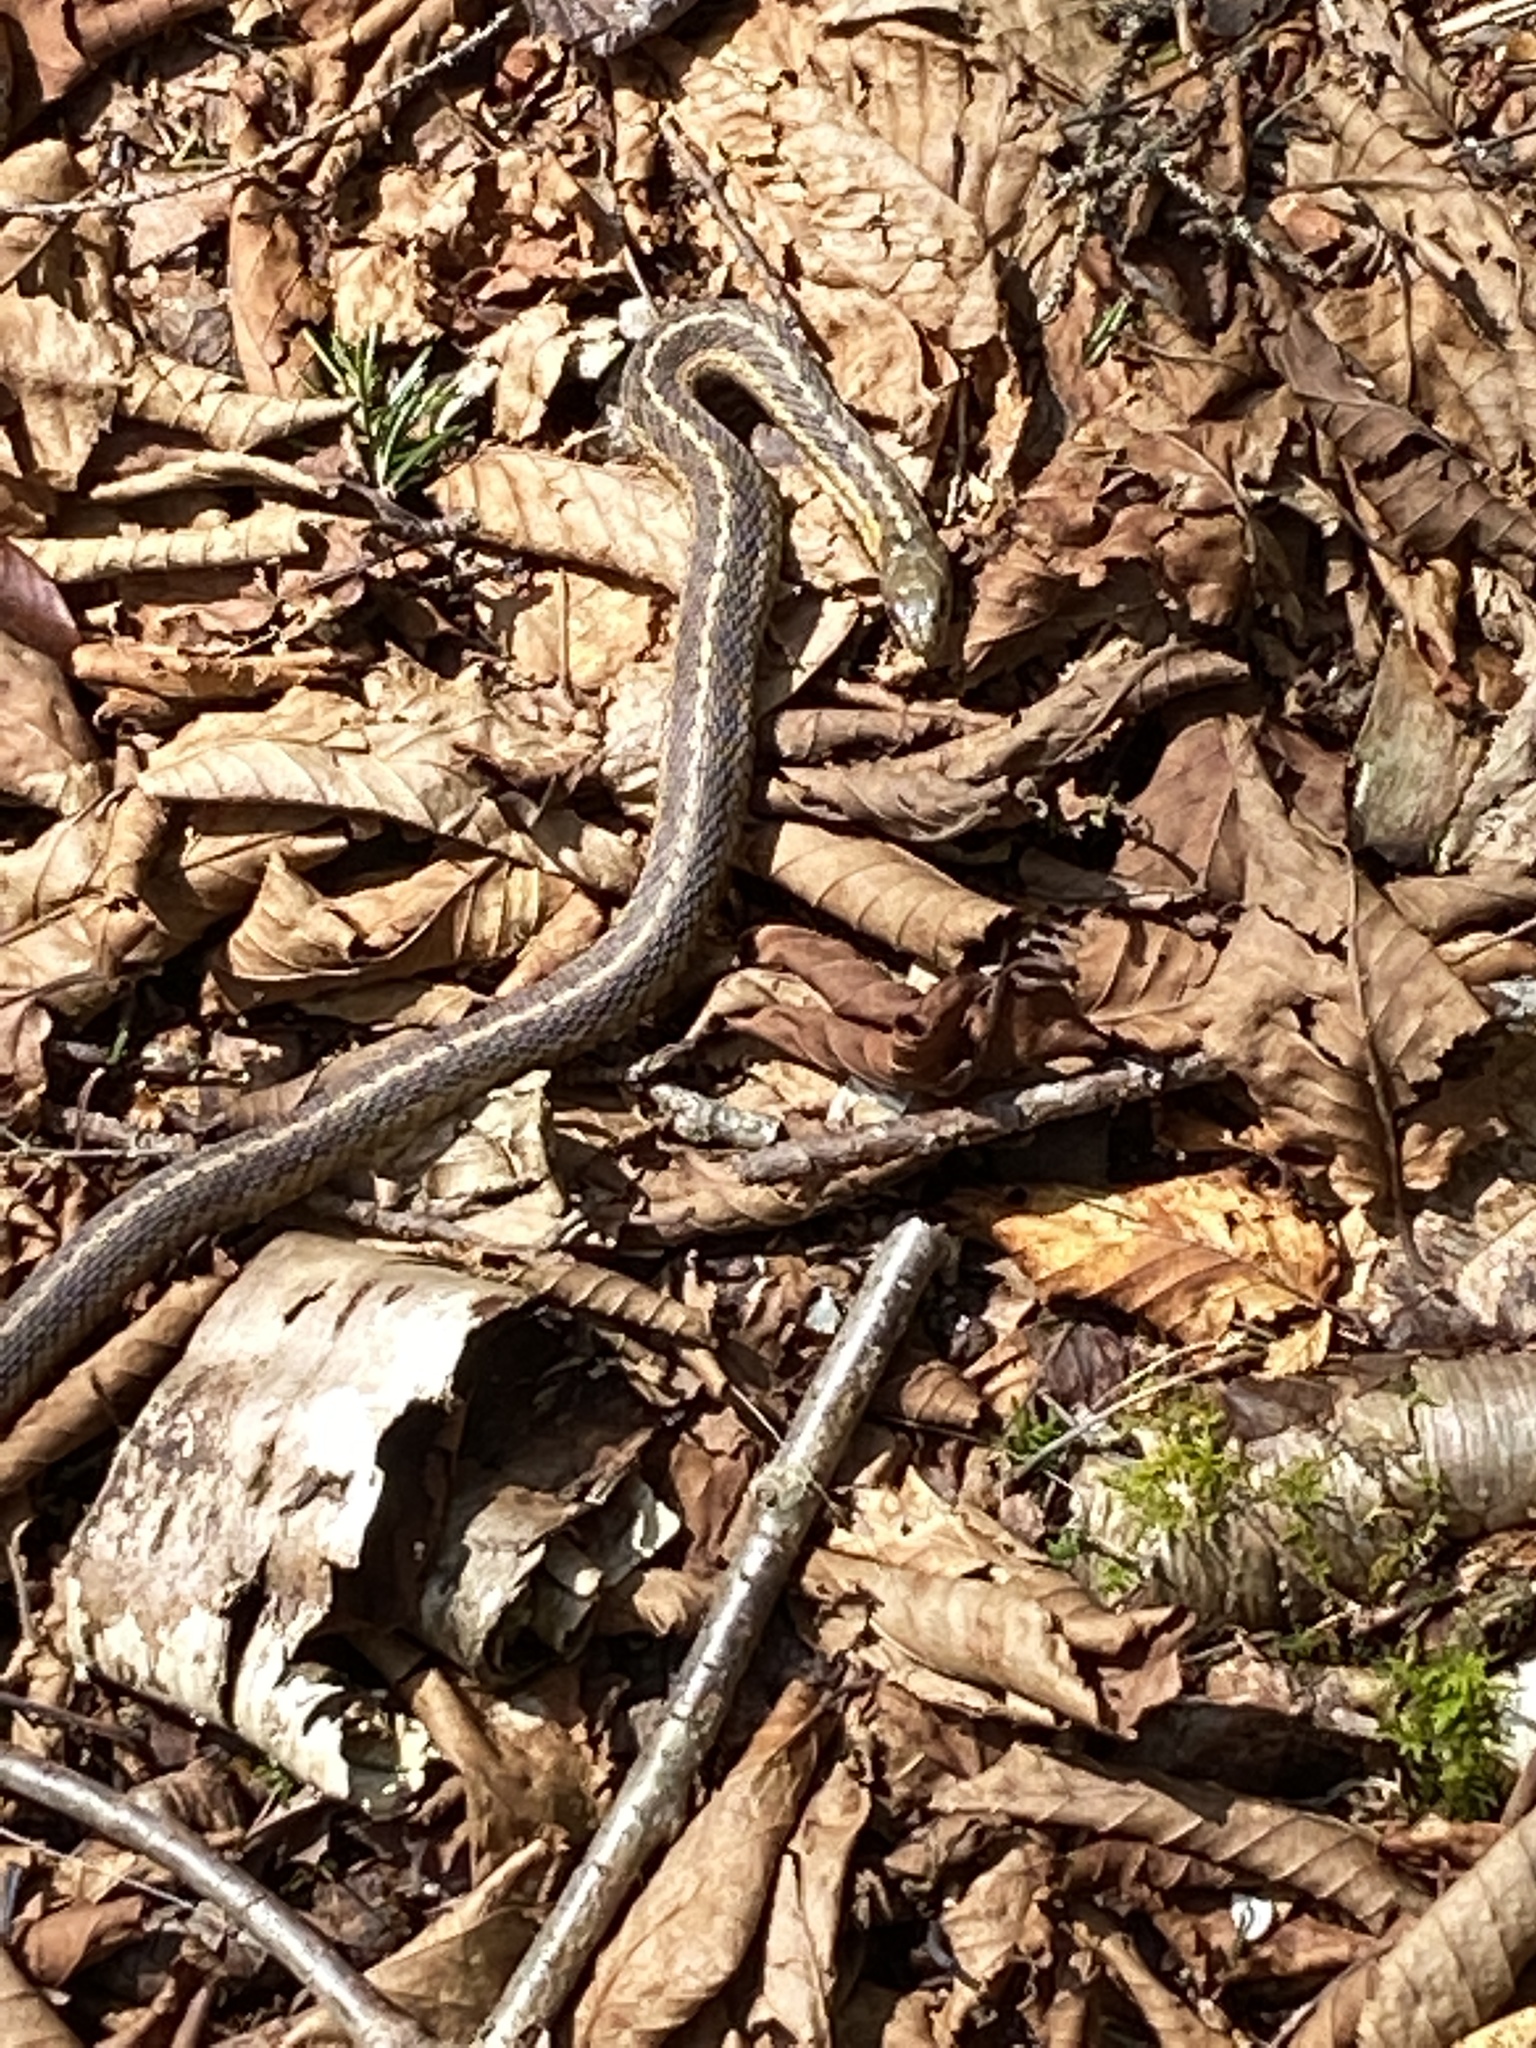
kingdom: Animalia
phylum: Chordata
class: Squamata
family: Colubridae
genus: Thamnophis
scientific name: Thamnophis sirtalis
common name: Common garter snake
